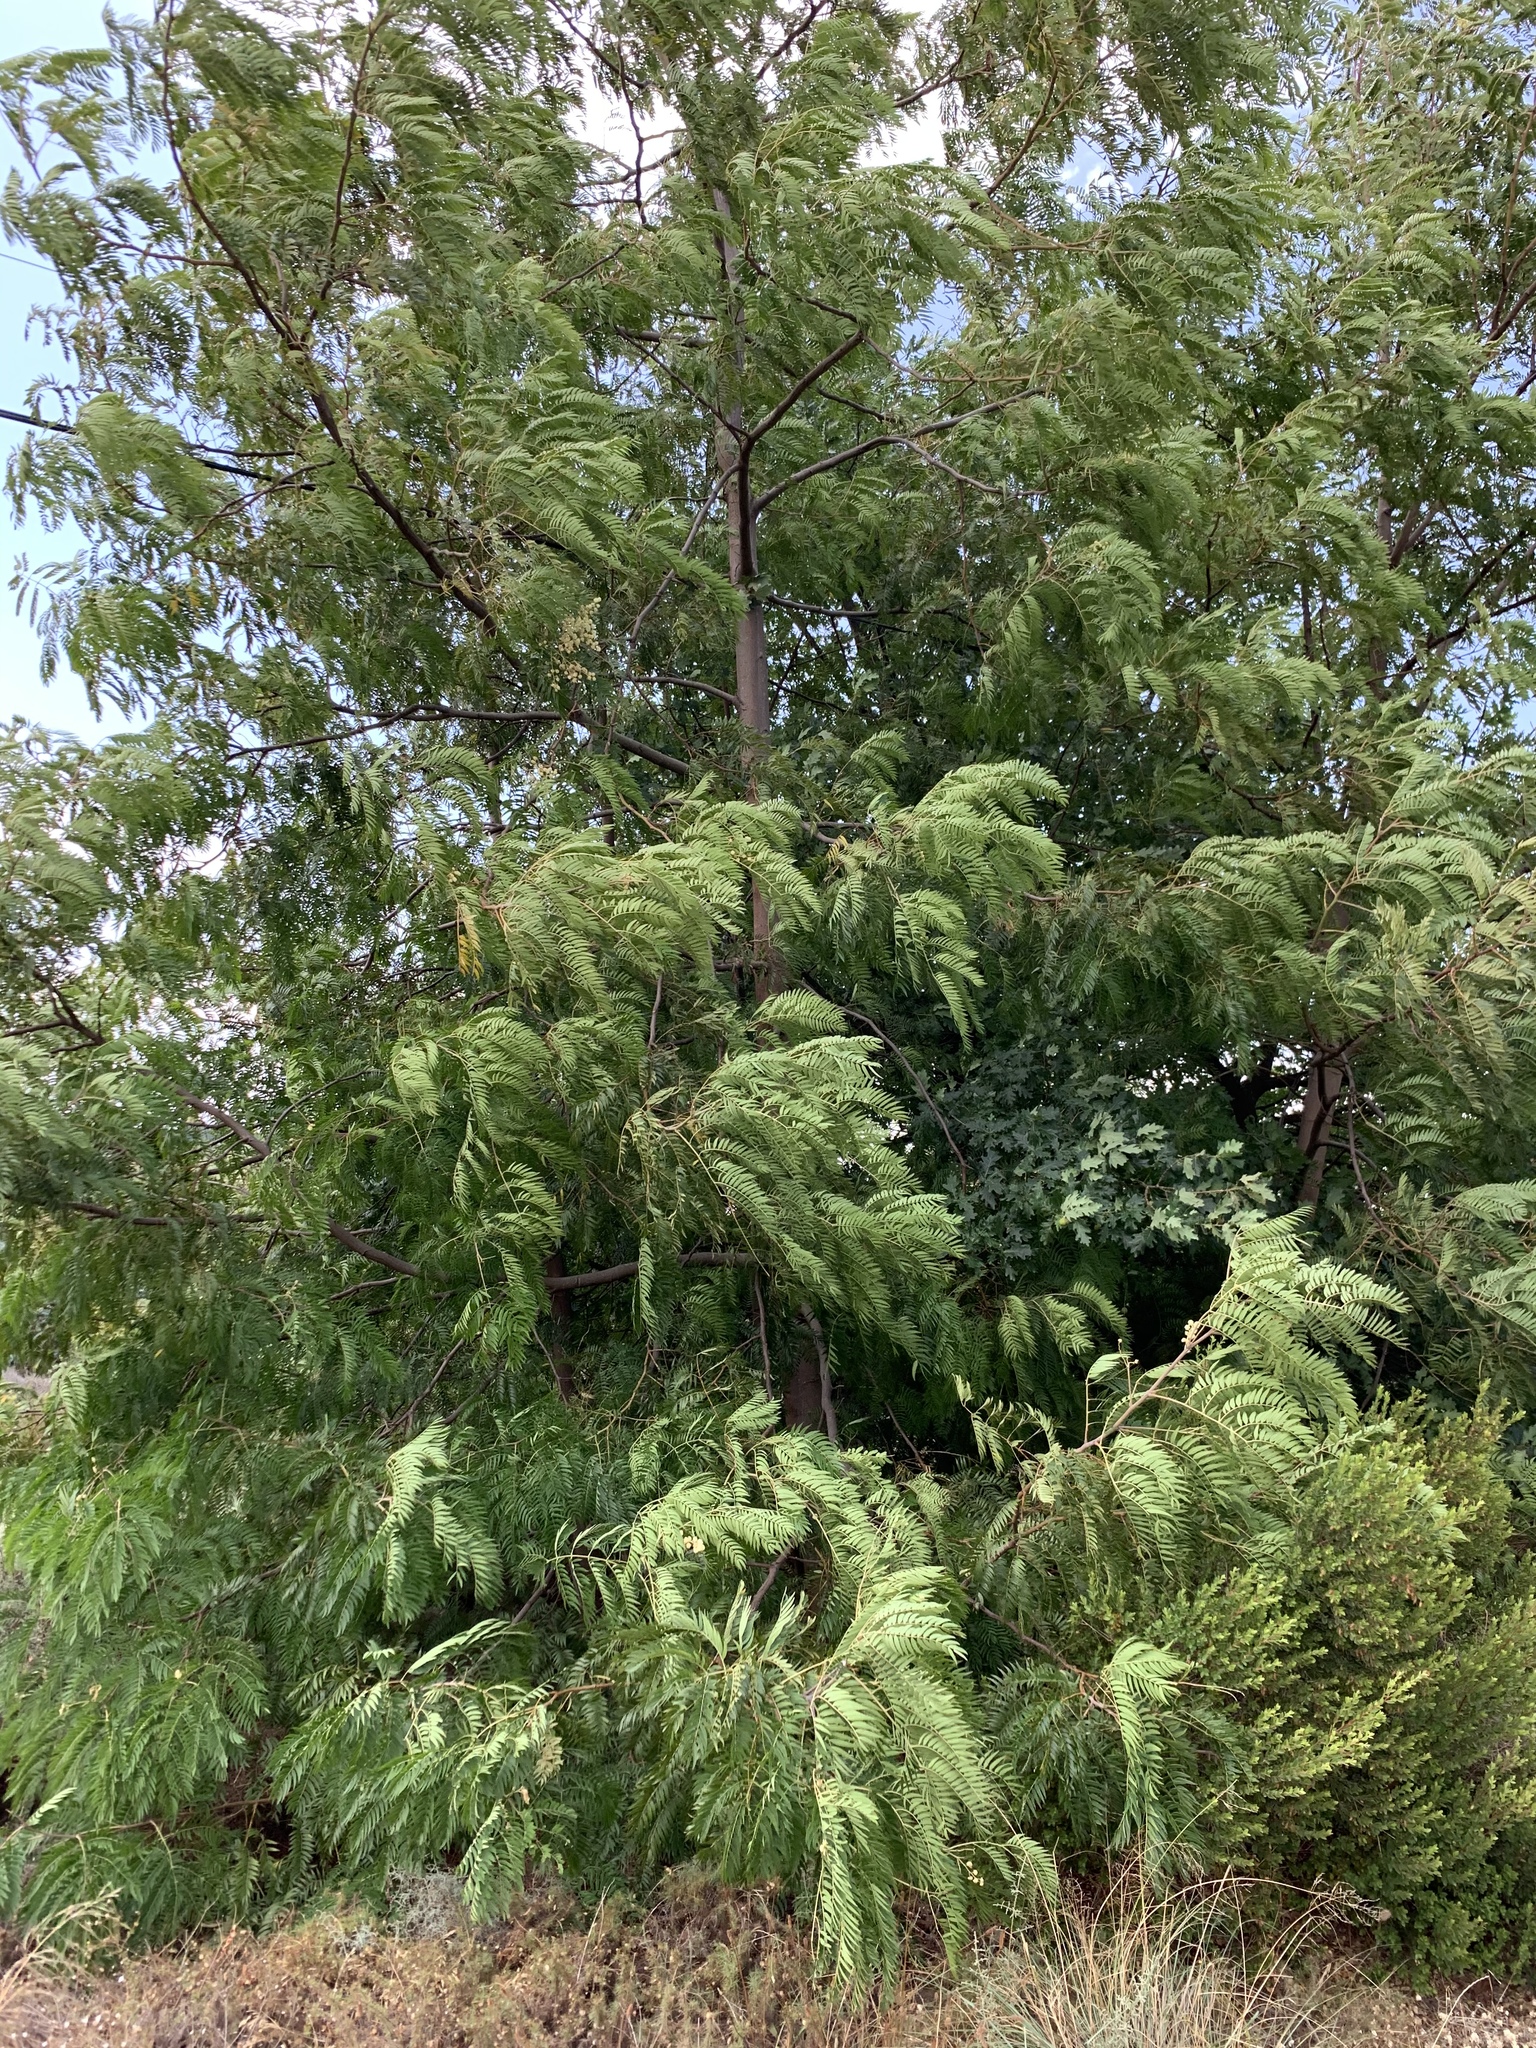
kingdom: Plantae
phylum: Tracheophyta
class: Magnoliopsida
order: Fabales
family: Fabaceae
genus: Acacia
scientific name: Acacia elata
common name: Cedar wattle
